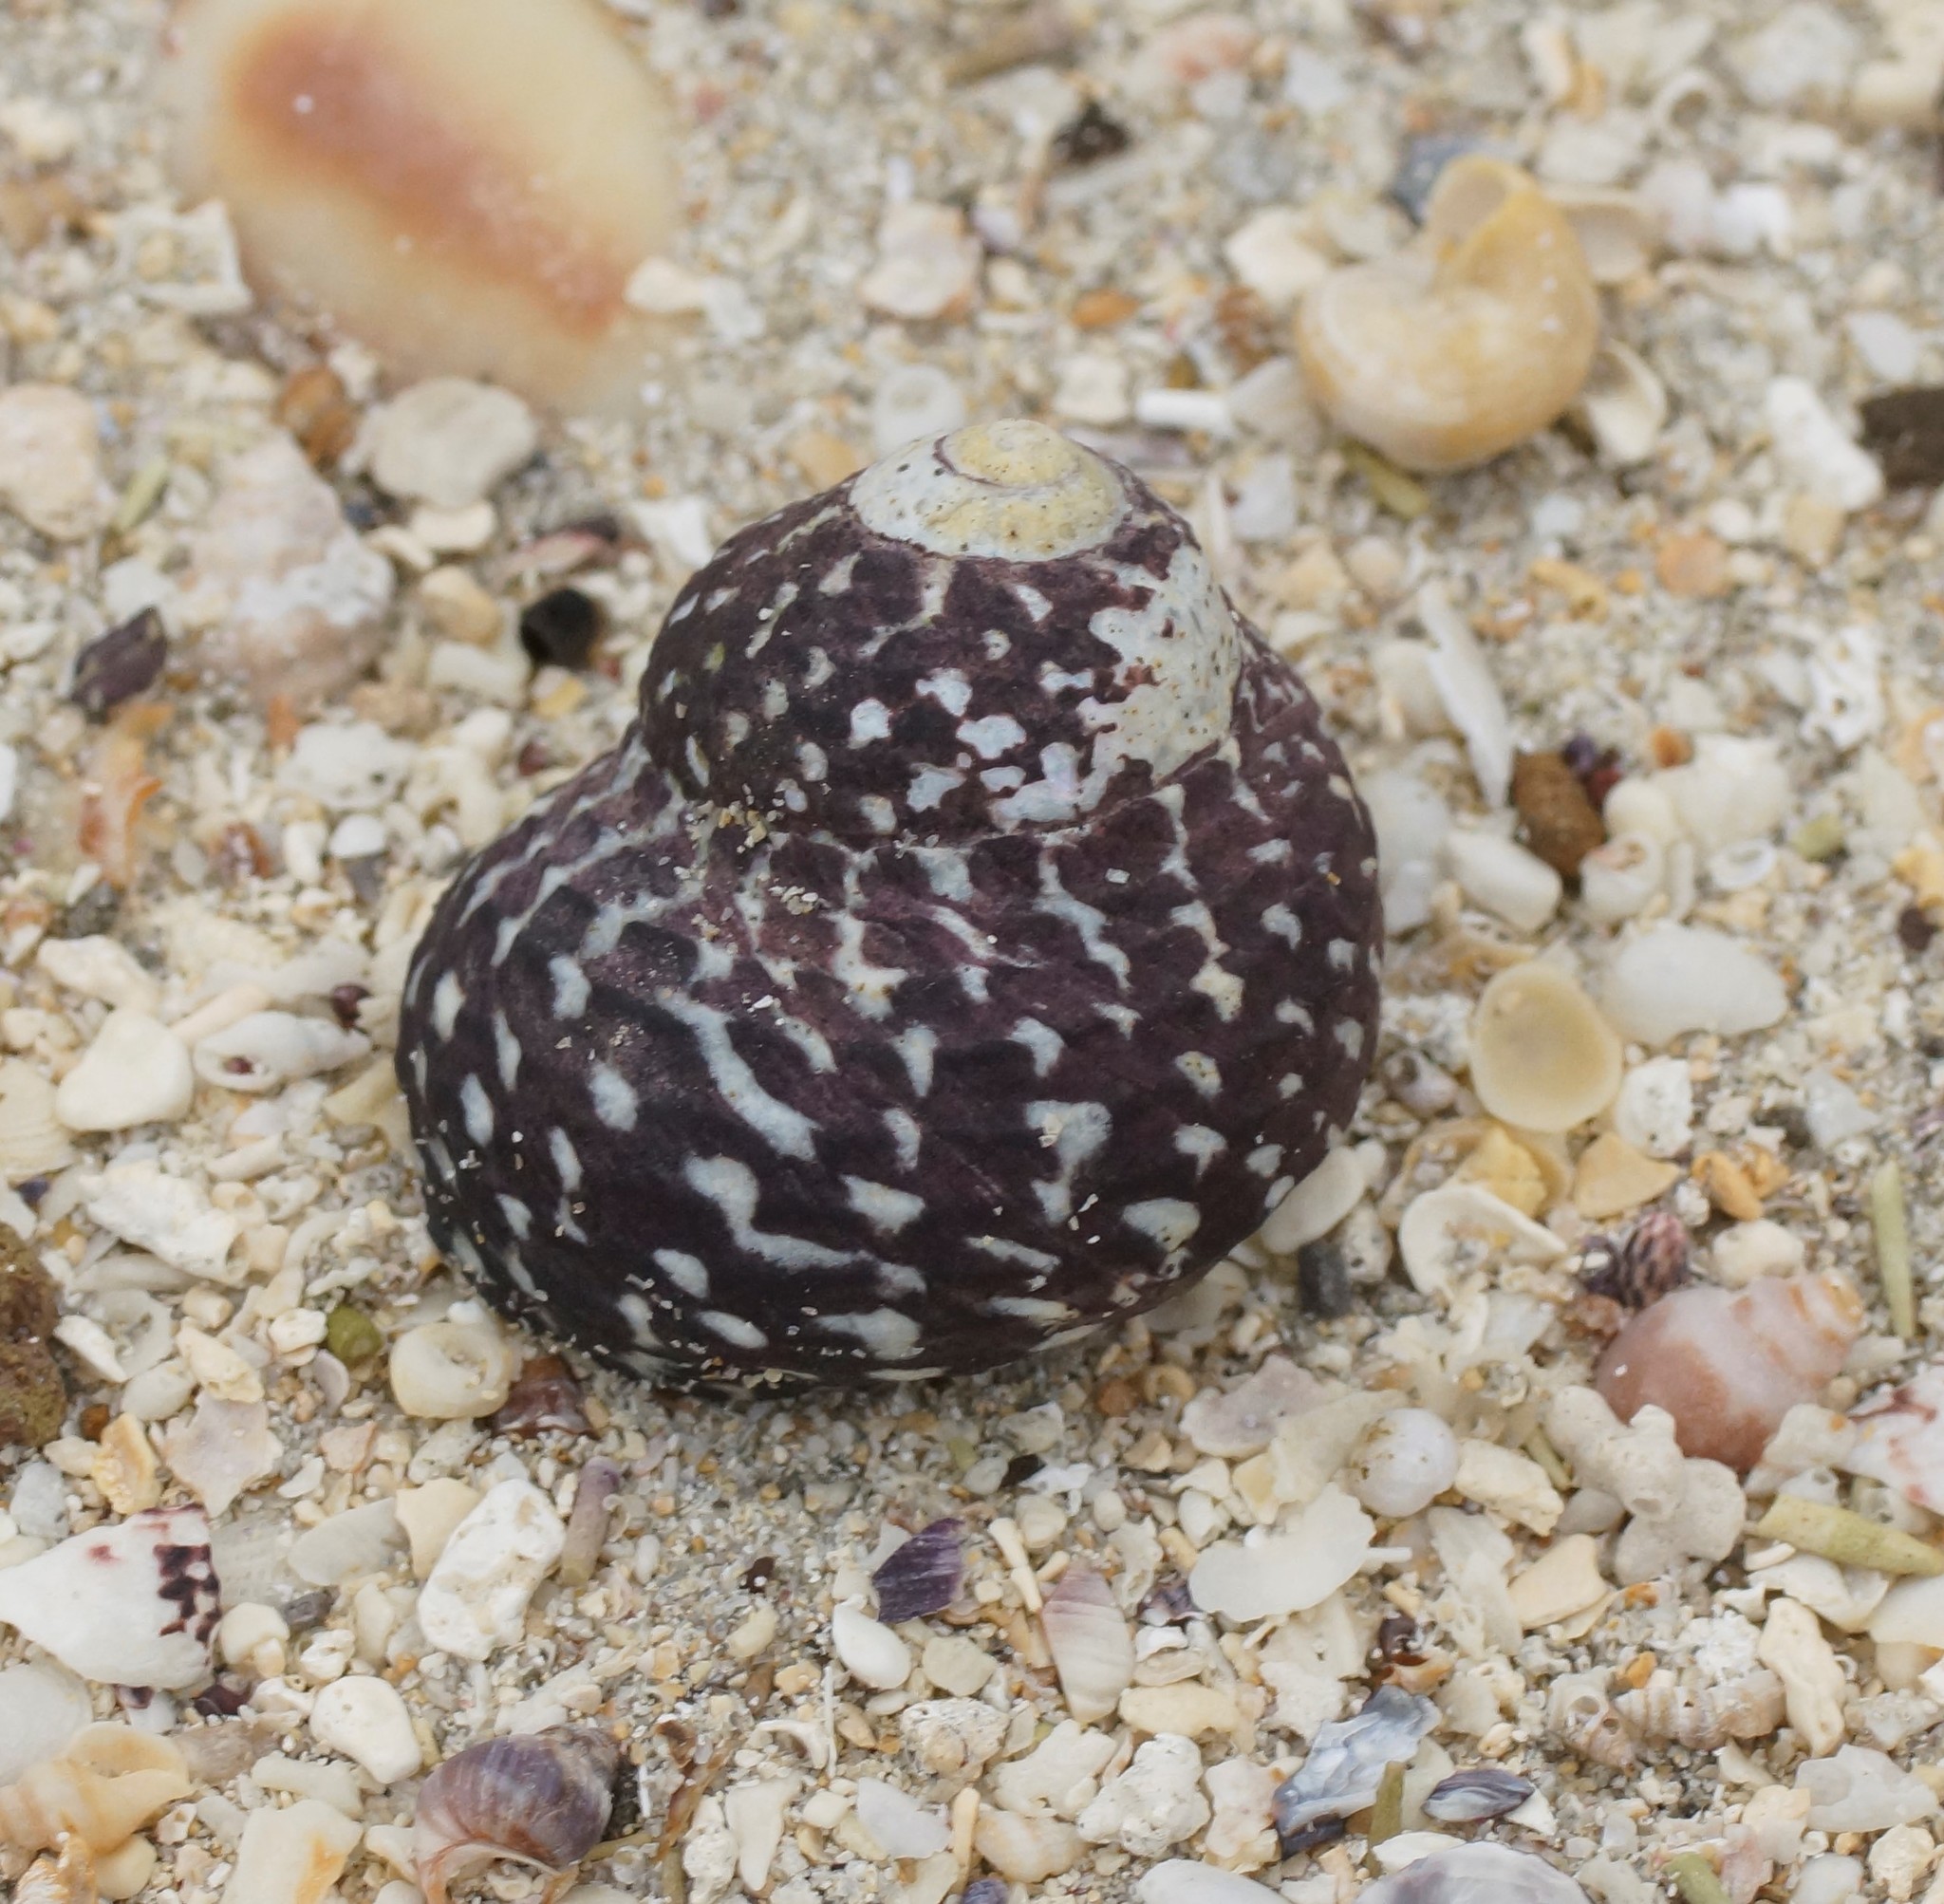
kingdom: Animalia
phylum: Mollusca
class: Gastropoda
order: Trochida
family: Trochidae
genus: Diloma
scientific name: Diloma concameratum
